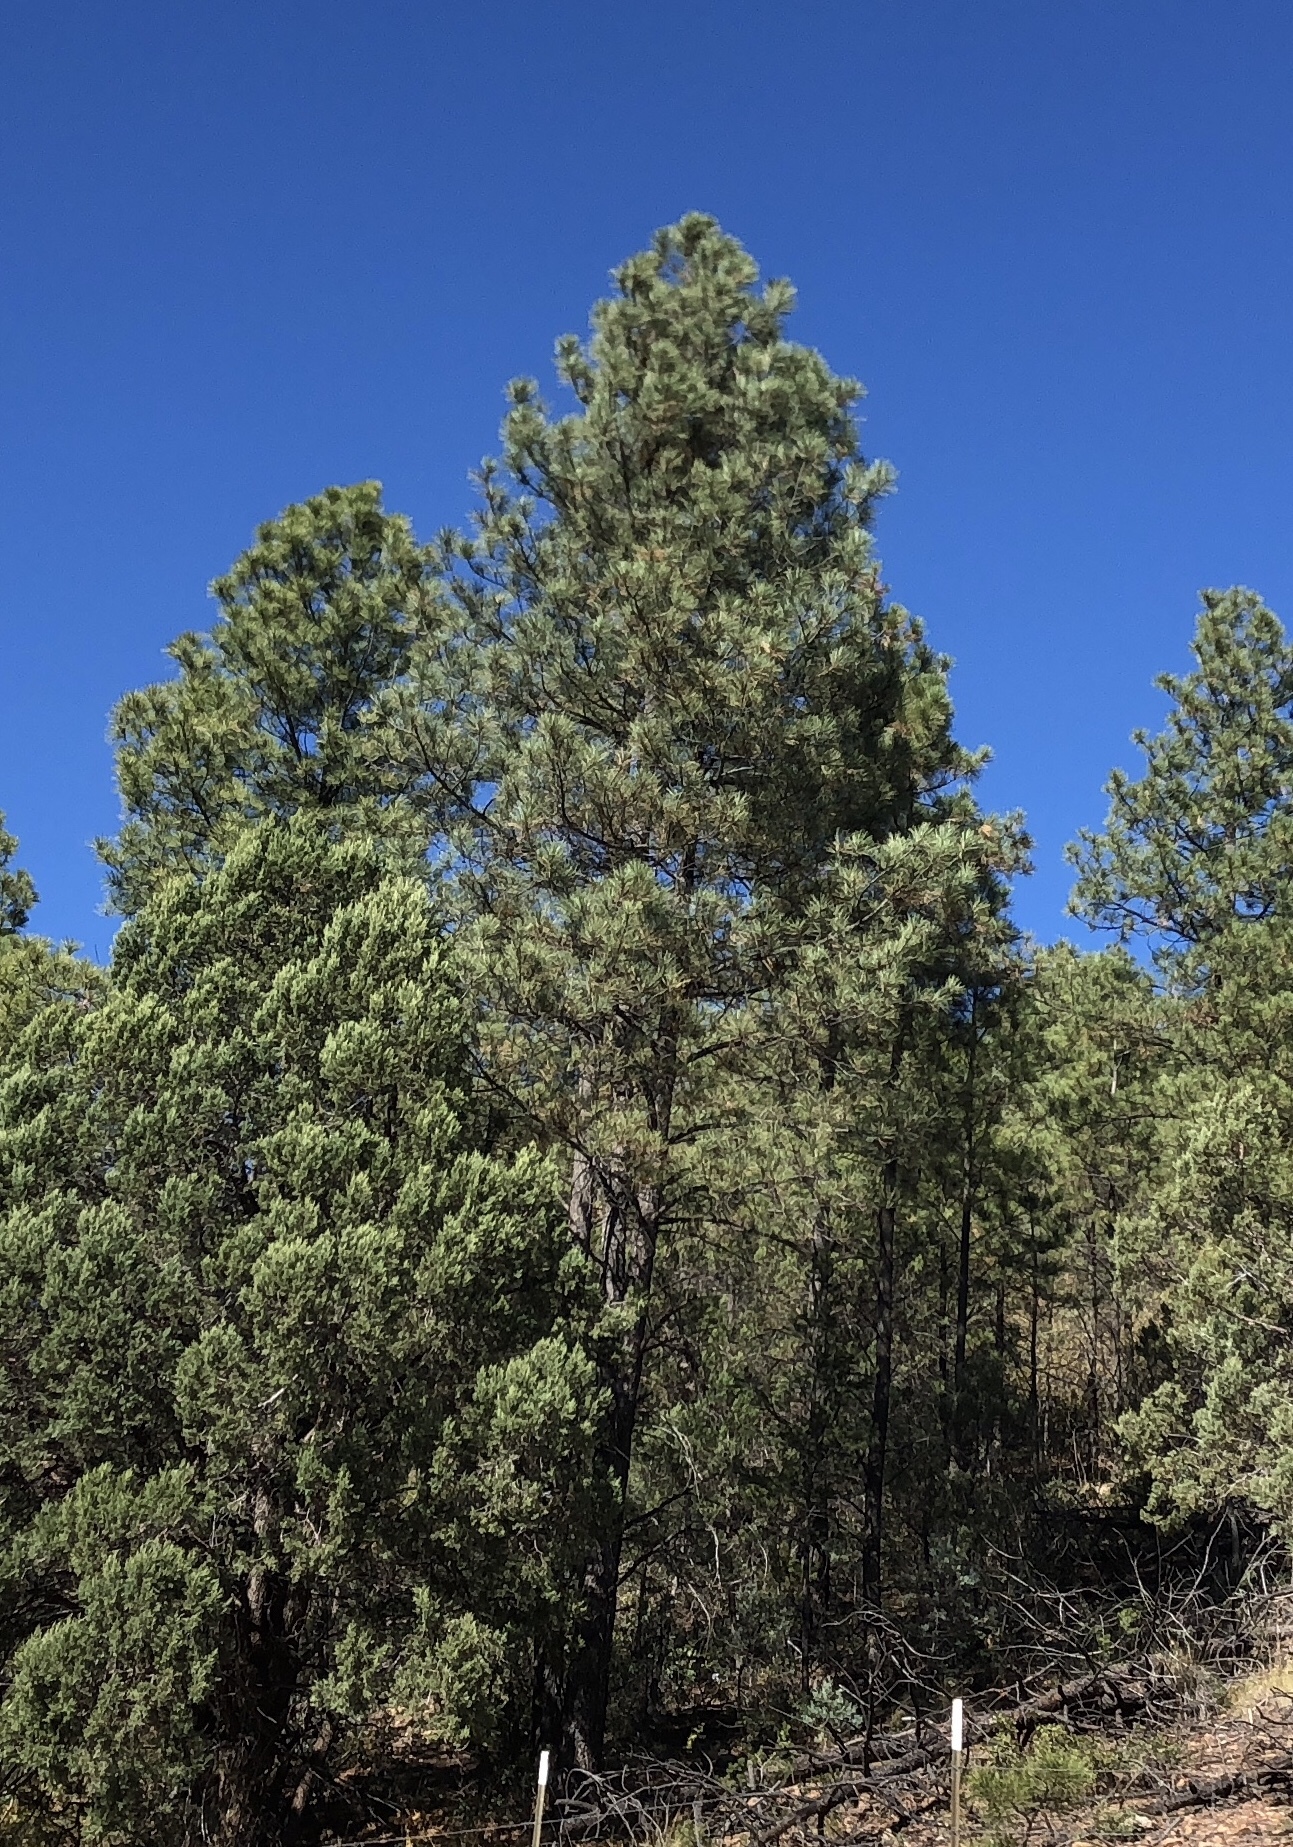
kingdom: Plantae
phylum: Tracheophyta
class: Pinopsida
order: Pinales
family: Pinaceae
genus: Pinus
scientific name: Pinus ponderosa
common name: Western yellow-pine
